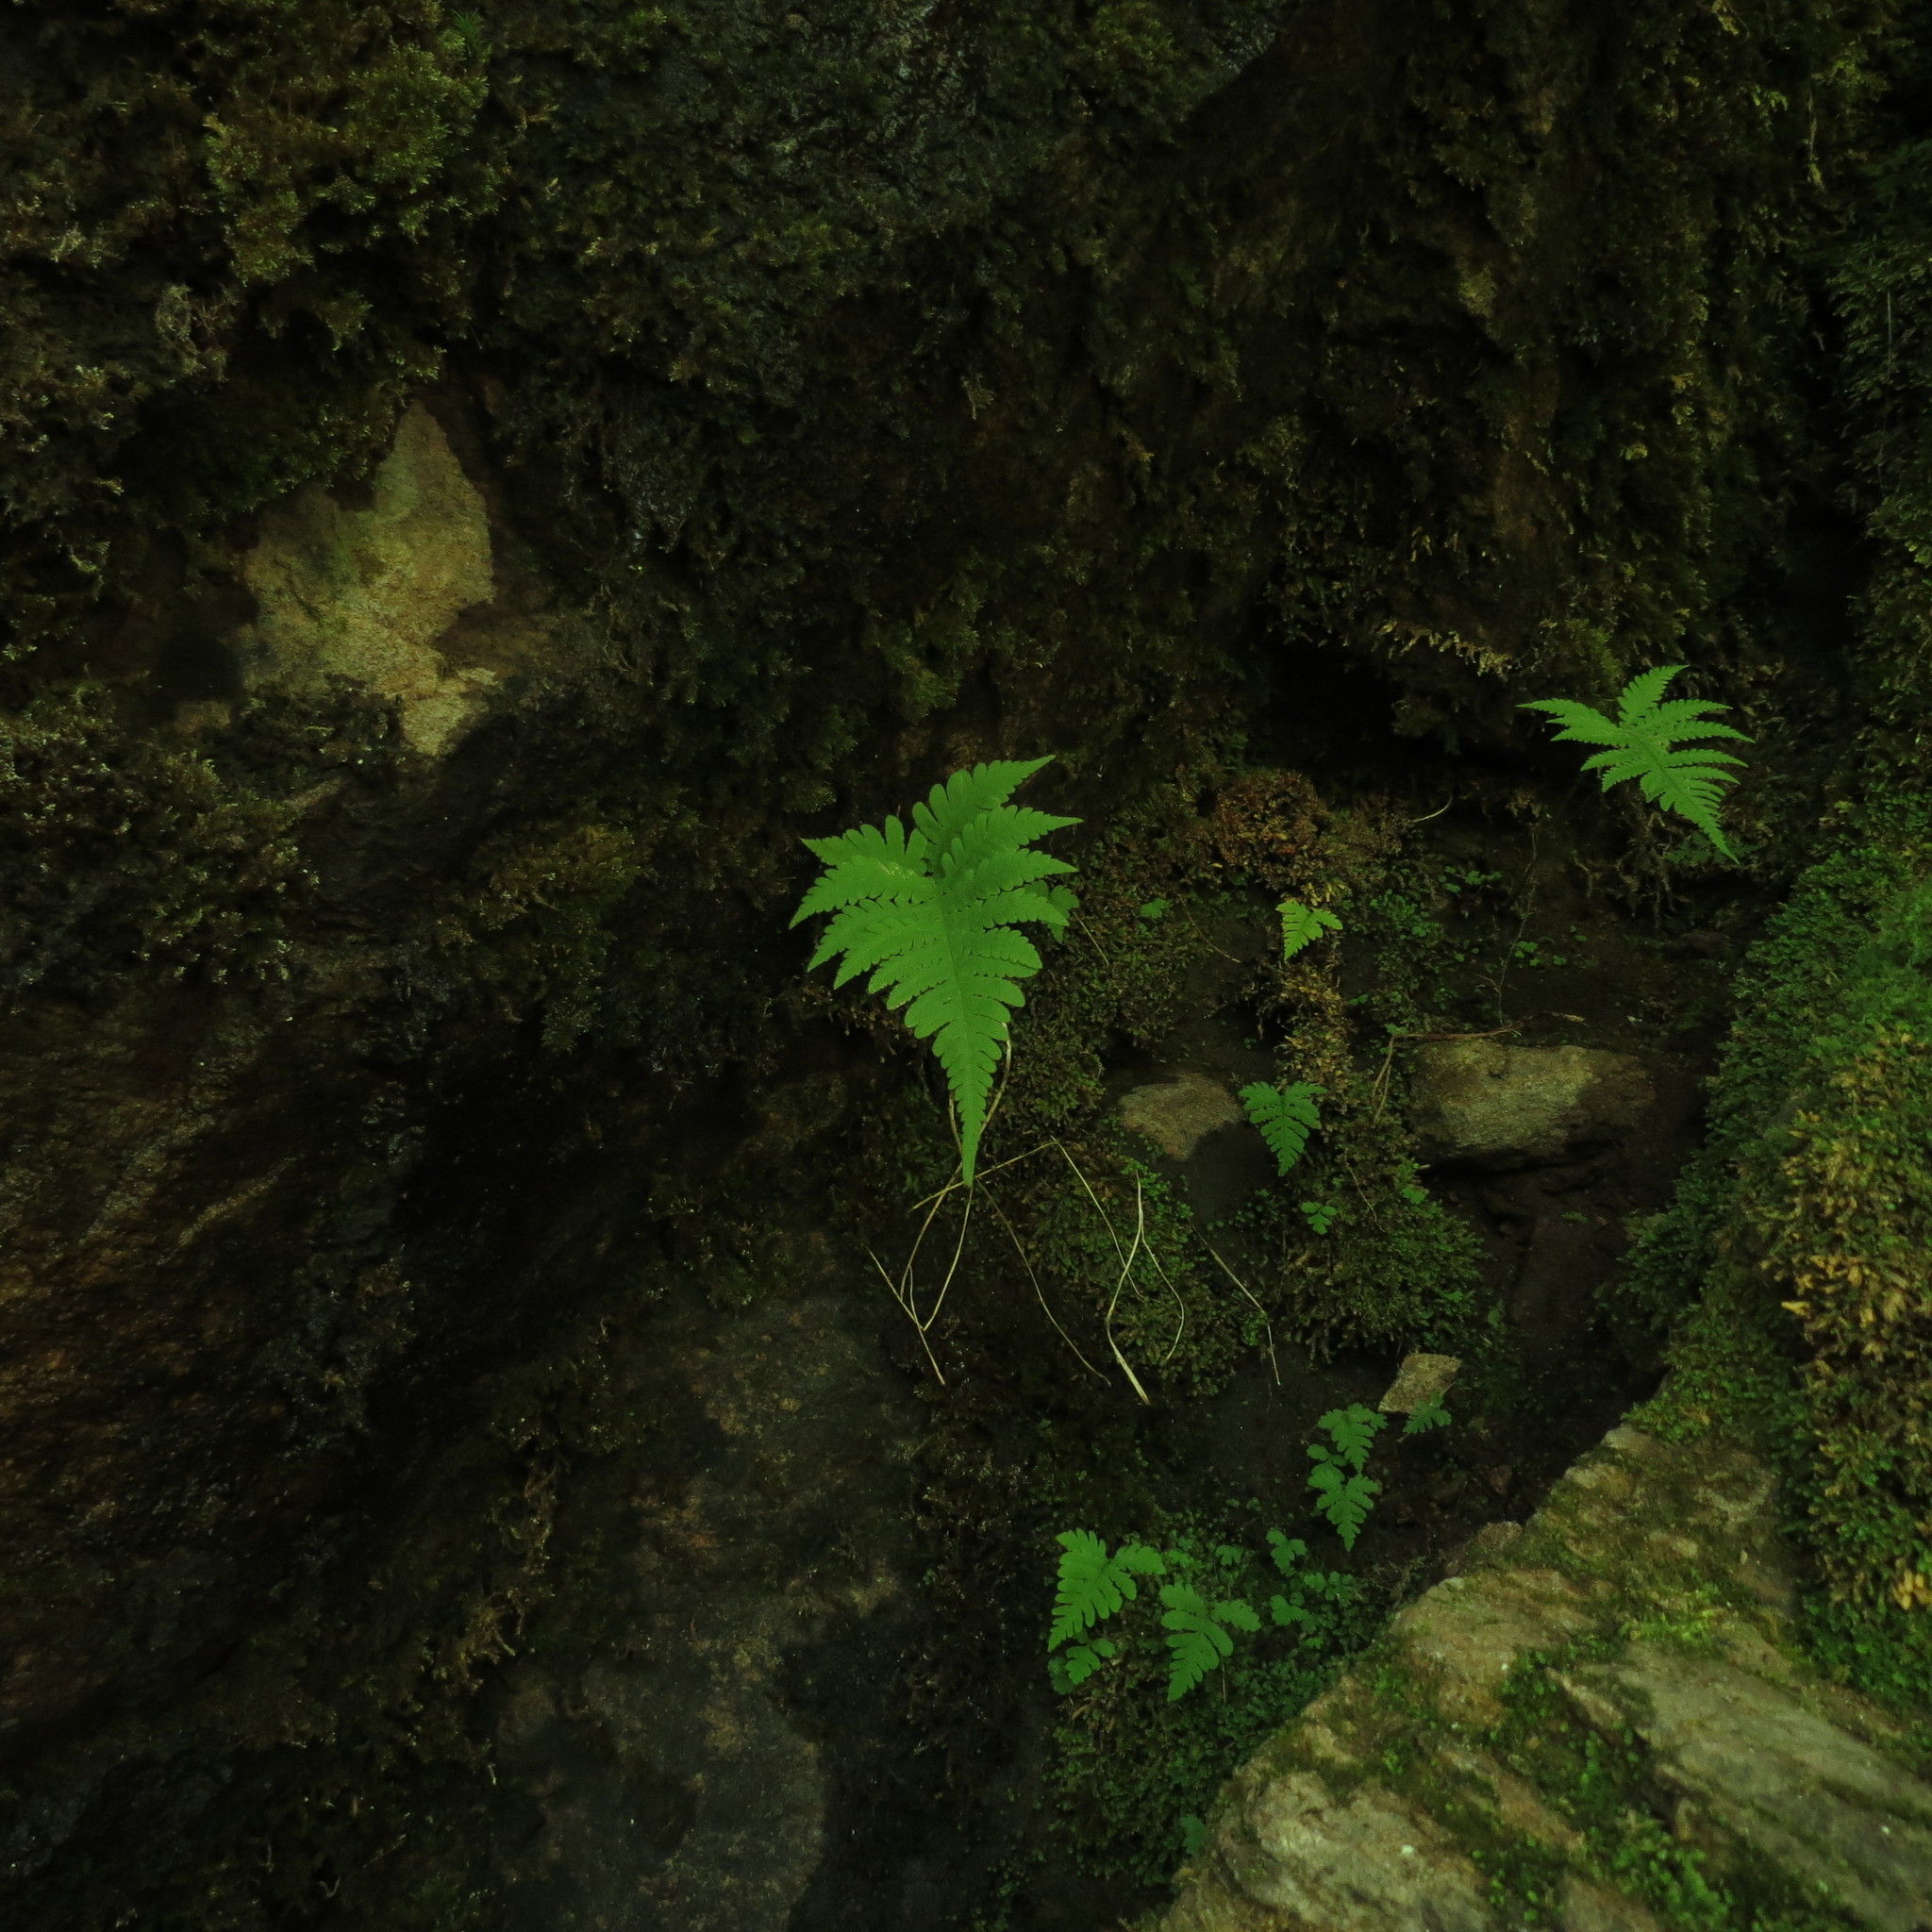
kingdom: Plantae
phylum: Tracheophyta
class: Polypodiopsida
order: Polypodiales
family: Thelypteridaceae
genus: Phegopteris
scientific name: Phegopteris connectilis
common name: Beech fern
